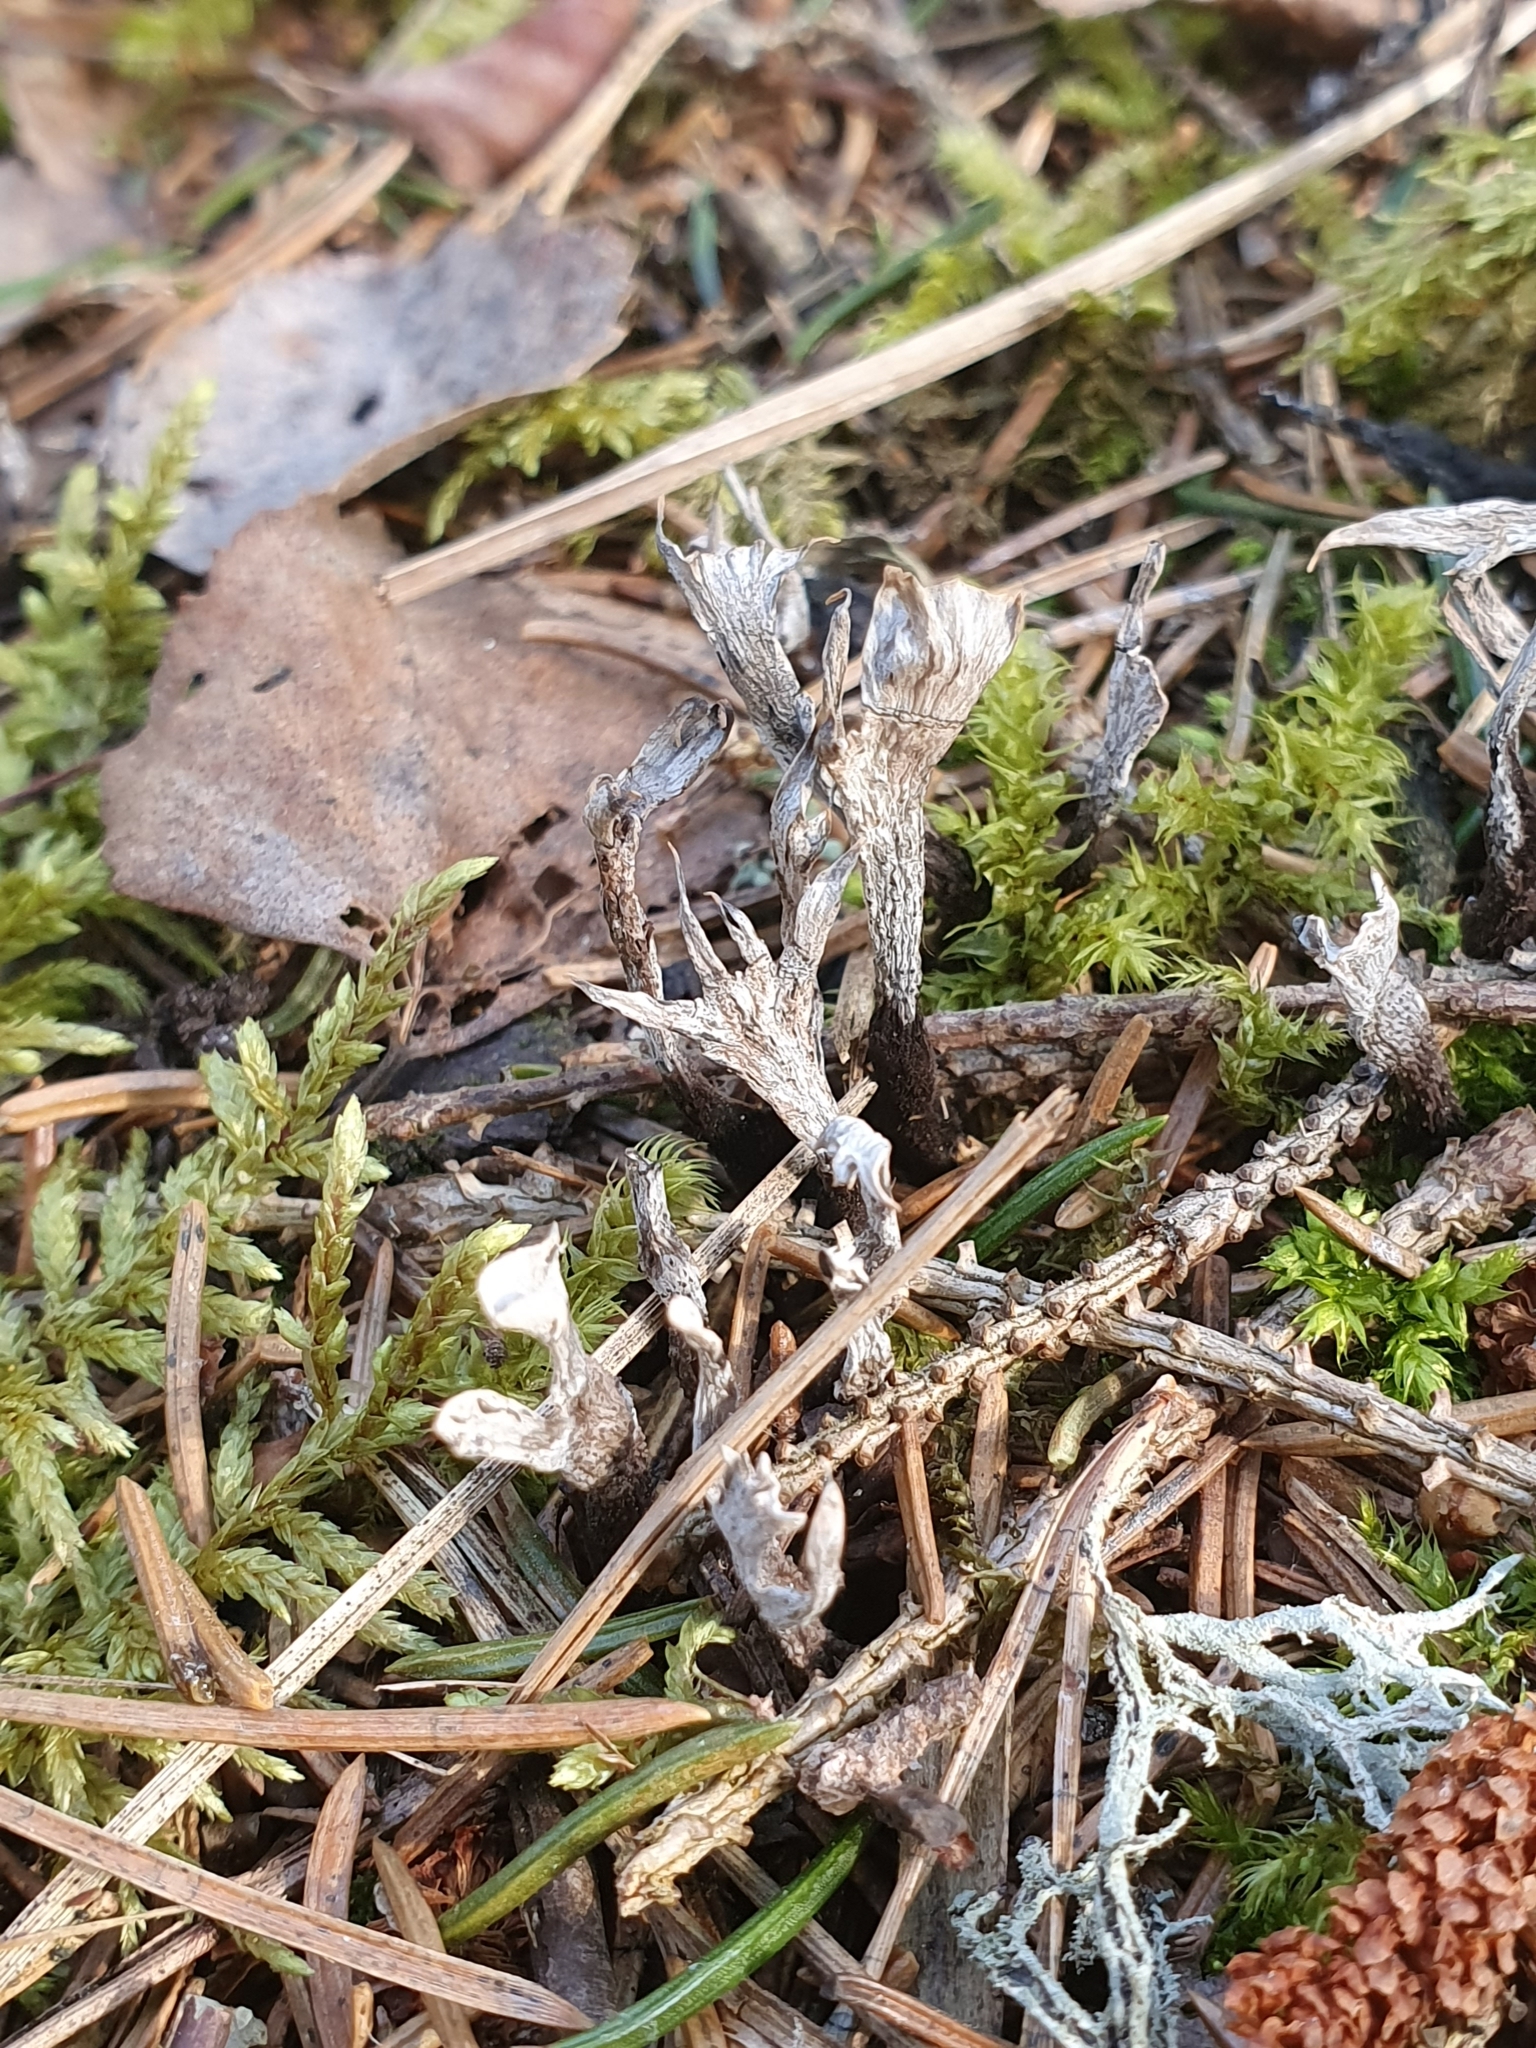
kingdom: Fungi
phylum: Ascomycota
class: Sordariomycetes
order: Xylariales
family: Xylariaceae
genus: Xylaria
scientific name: Xylaria hypoxylon
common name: Candle-snuff fungus
